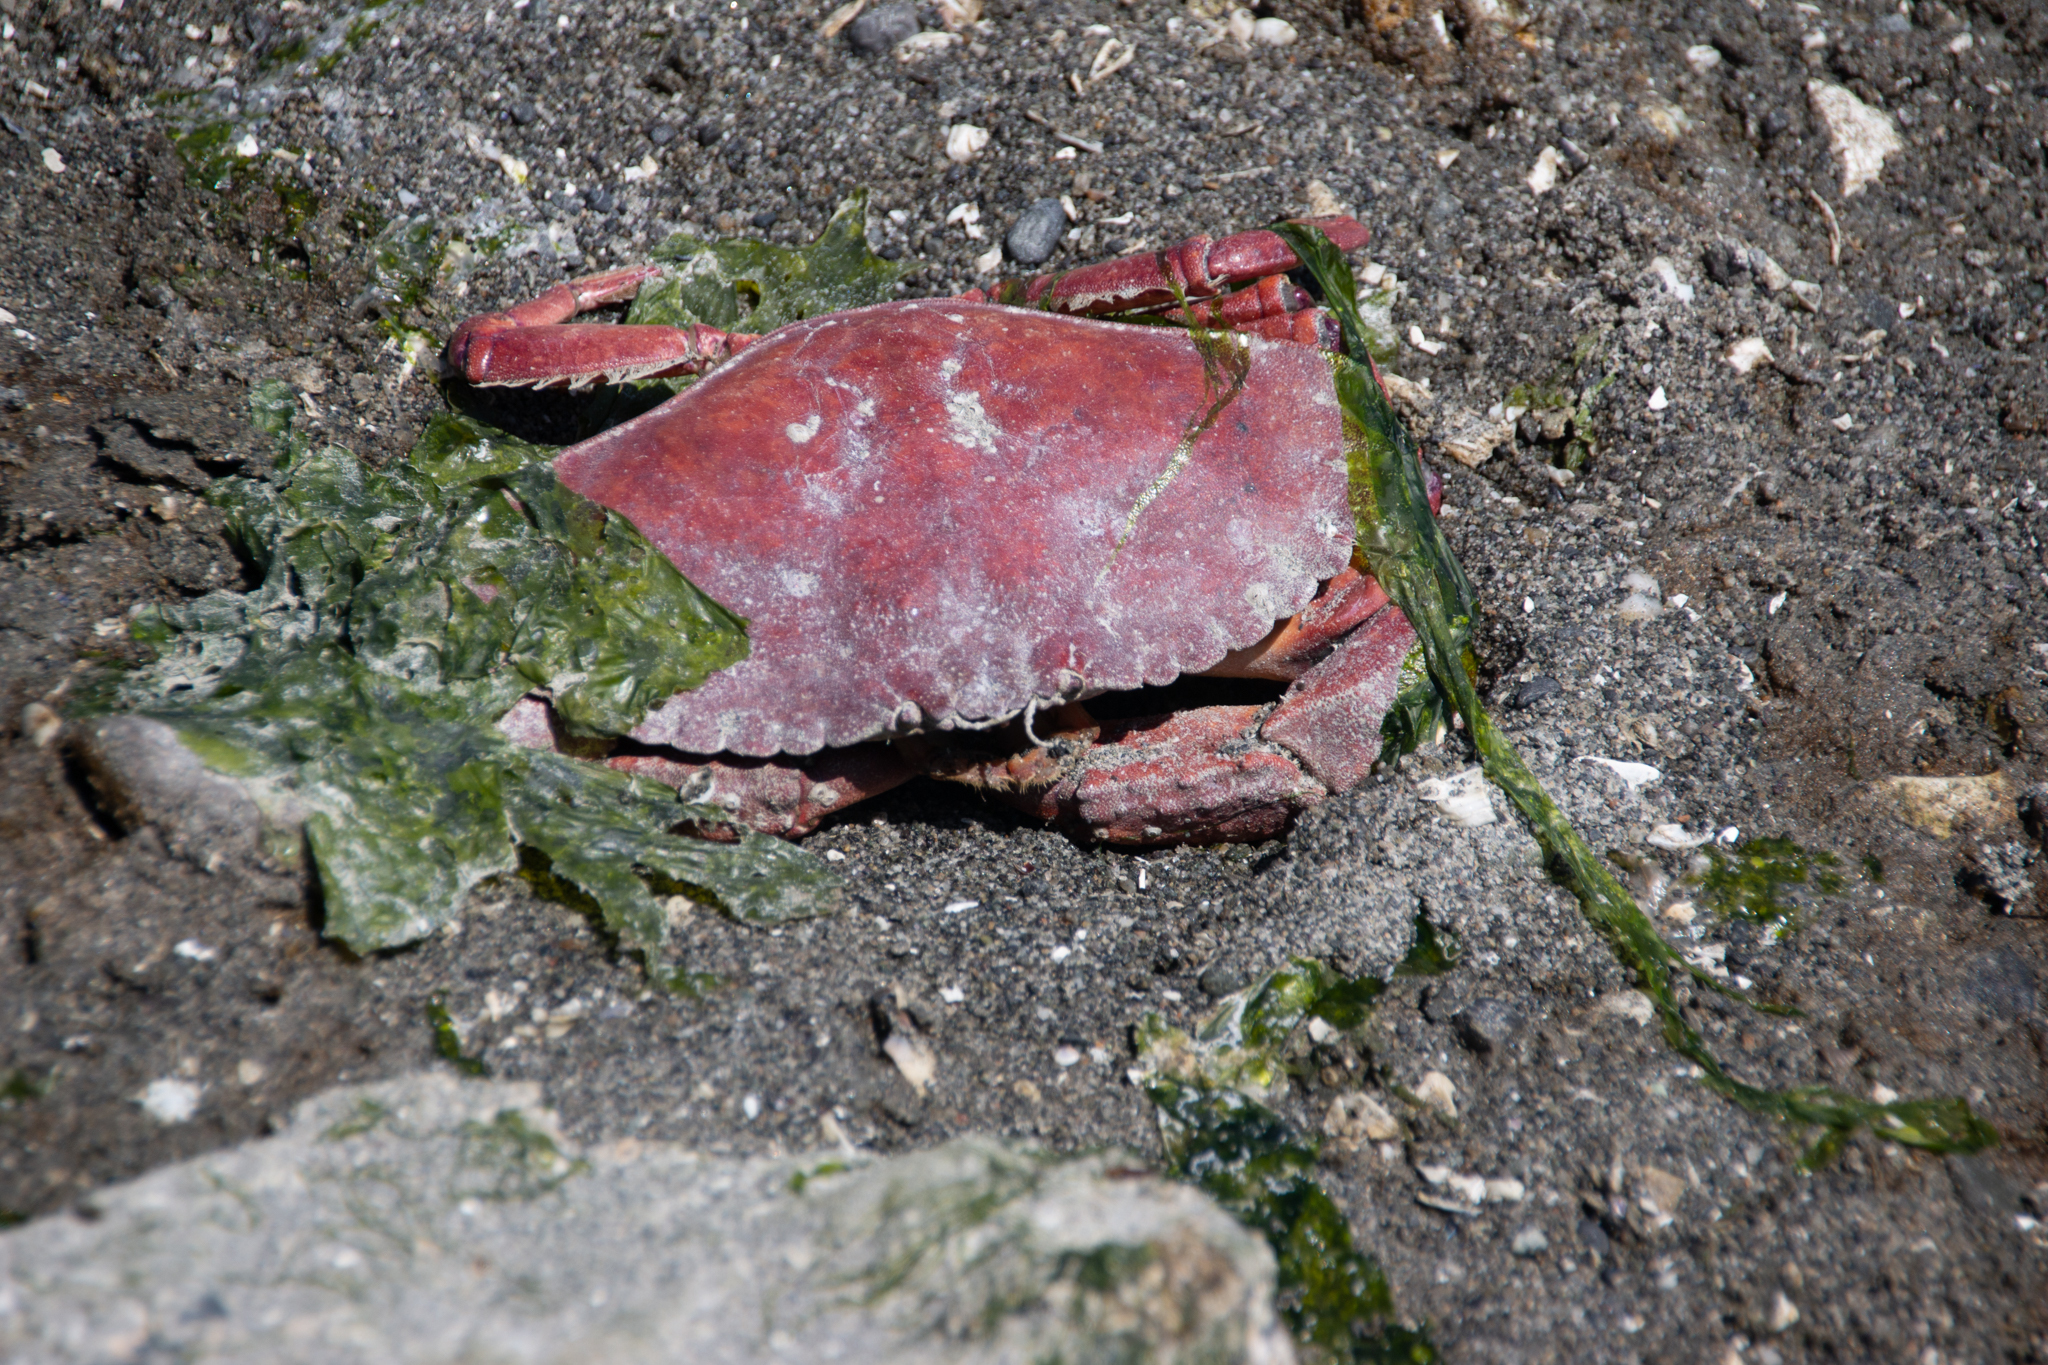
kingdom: Animalia
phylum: Arthropoda
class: Malacostraca
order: Decapoda
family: Cancridae
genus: Cancer
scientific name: Cancer productus
